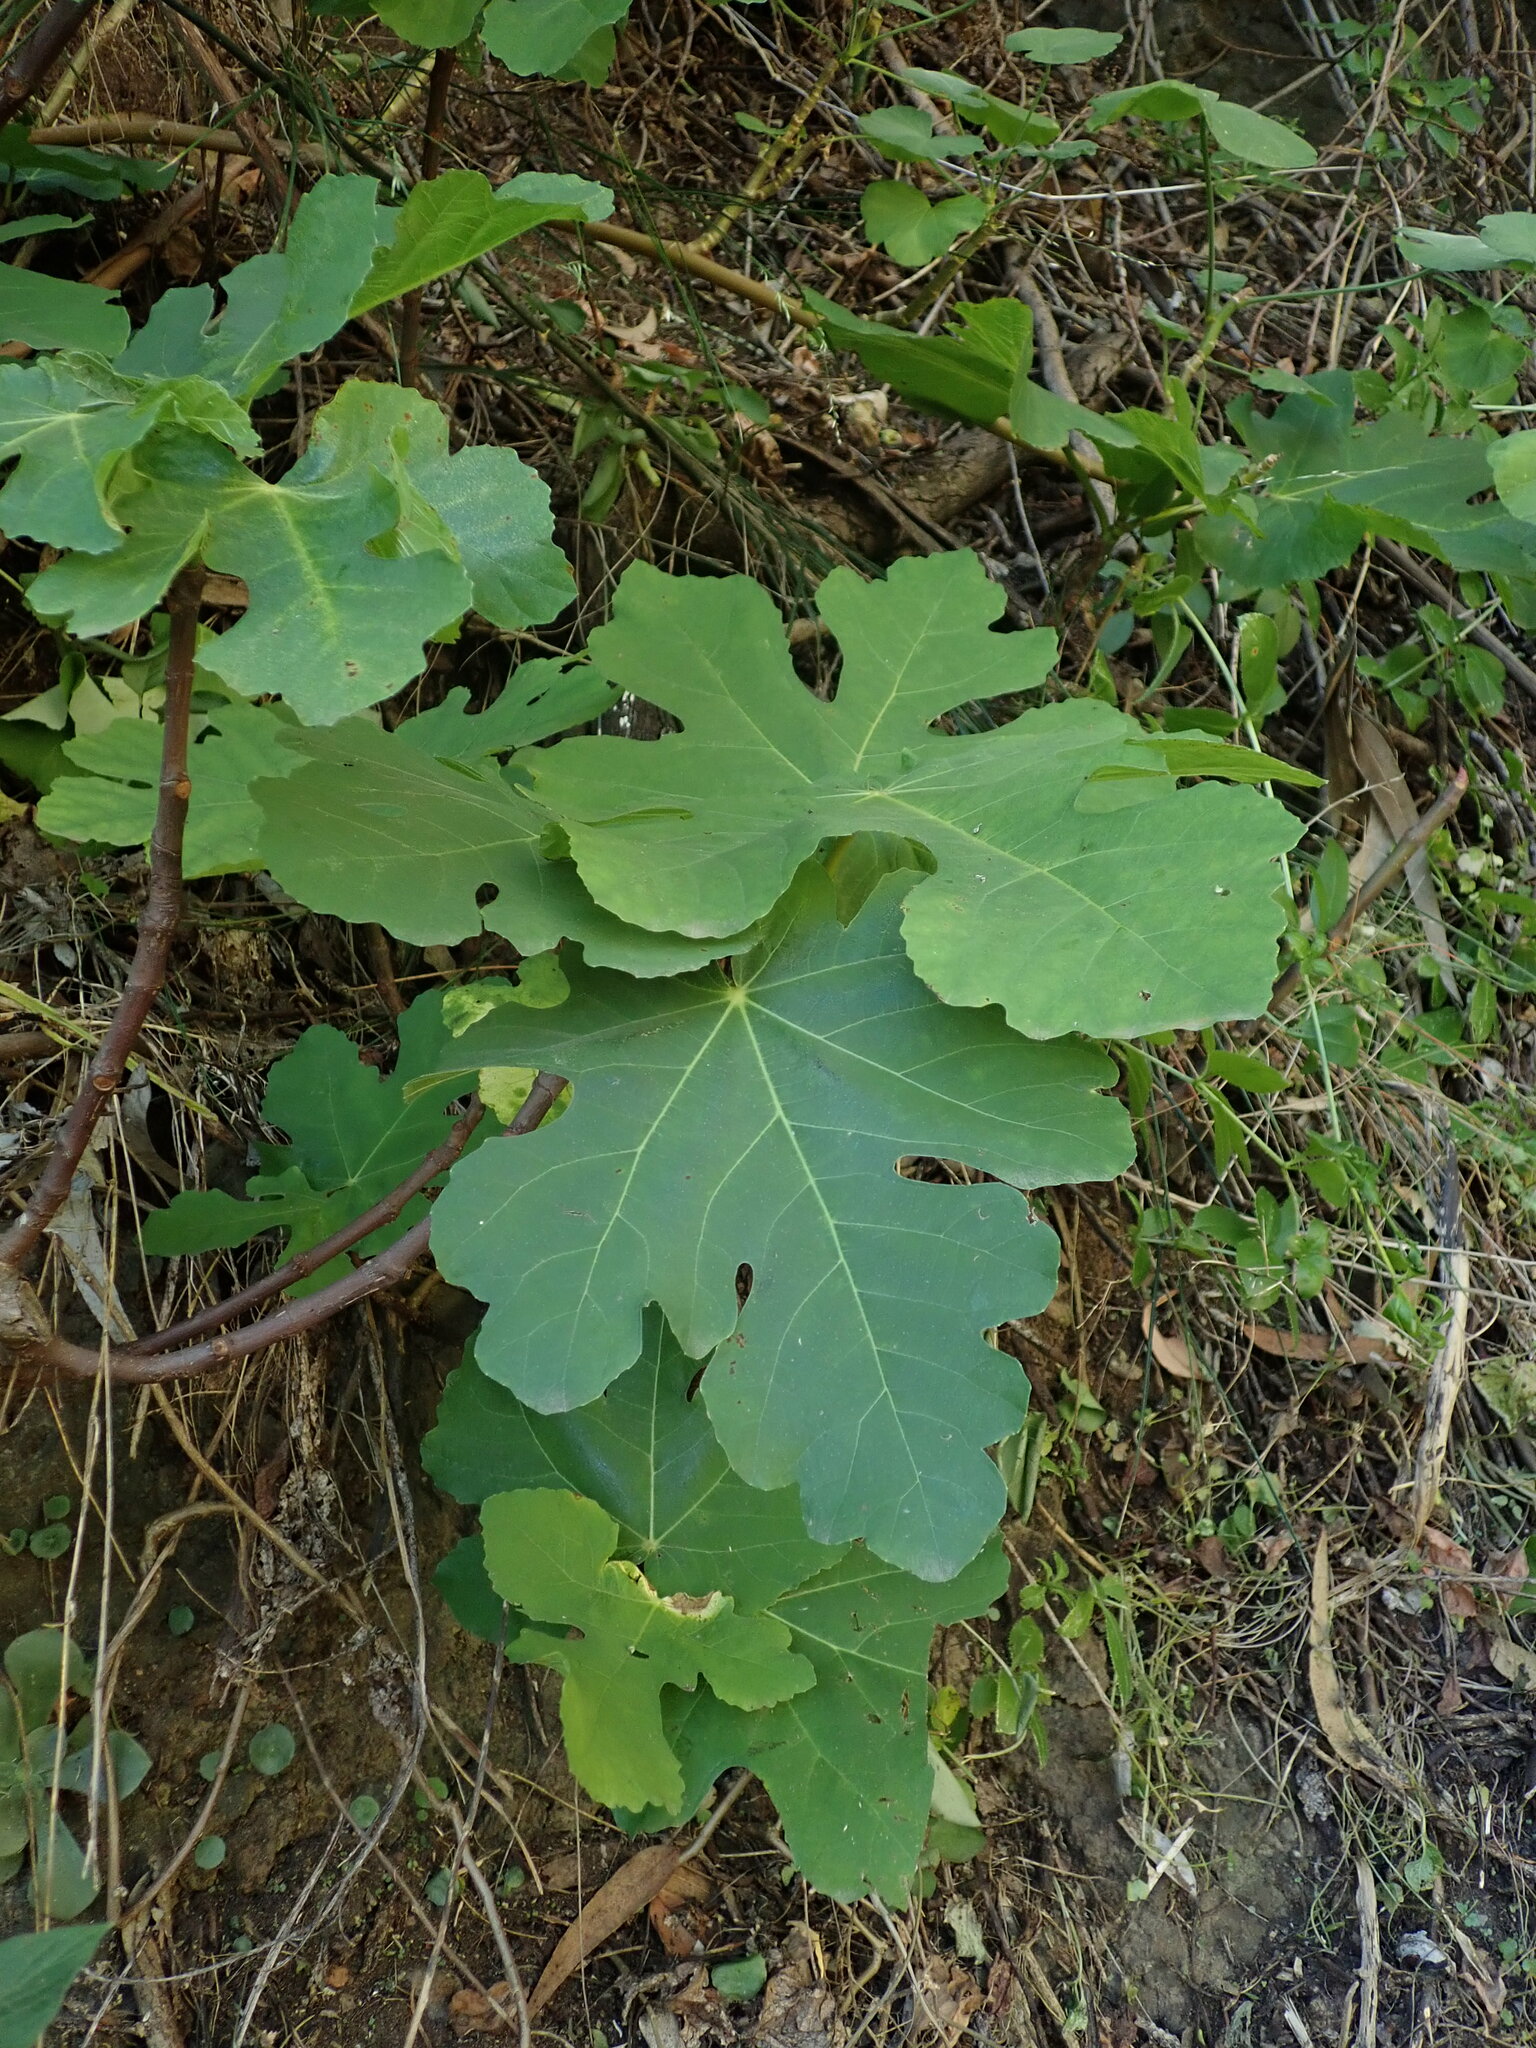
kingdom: Plantae
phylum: Tracheophyta
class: Magnoliopsida
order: Rosales
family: Moraceae
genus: Ficus
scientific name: Ficus carica
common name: Fig
